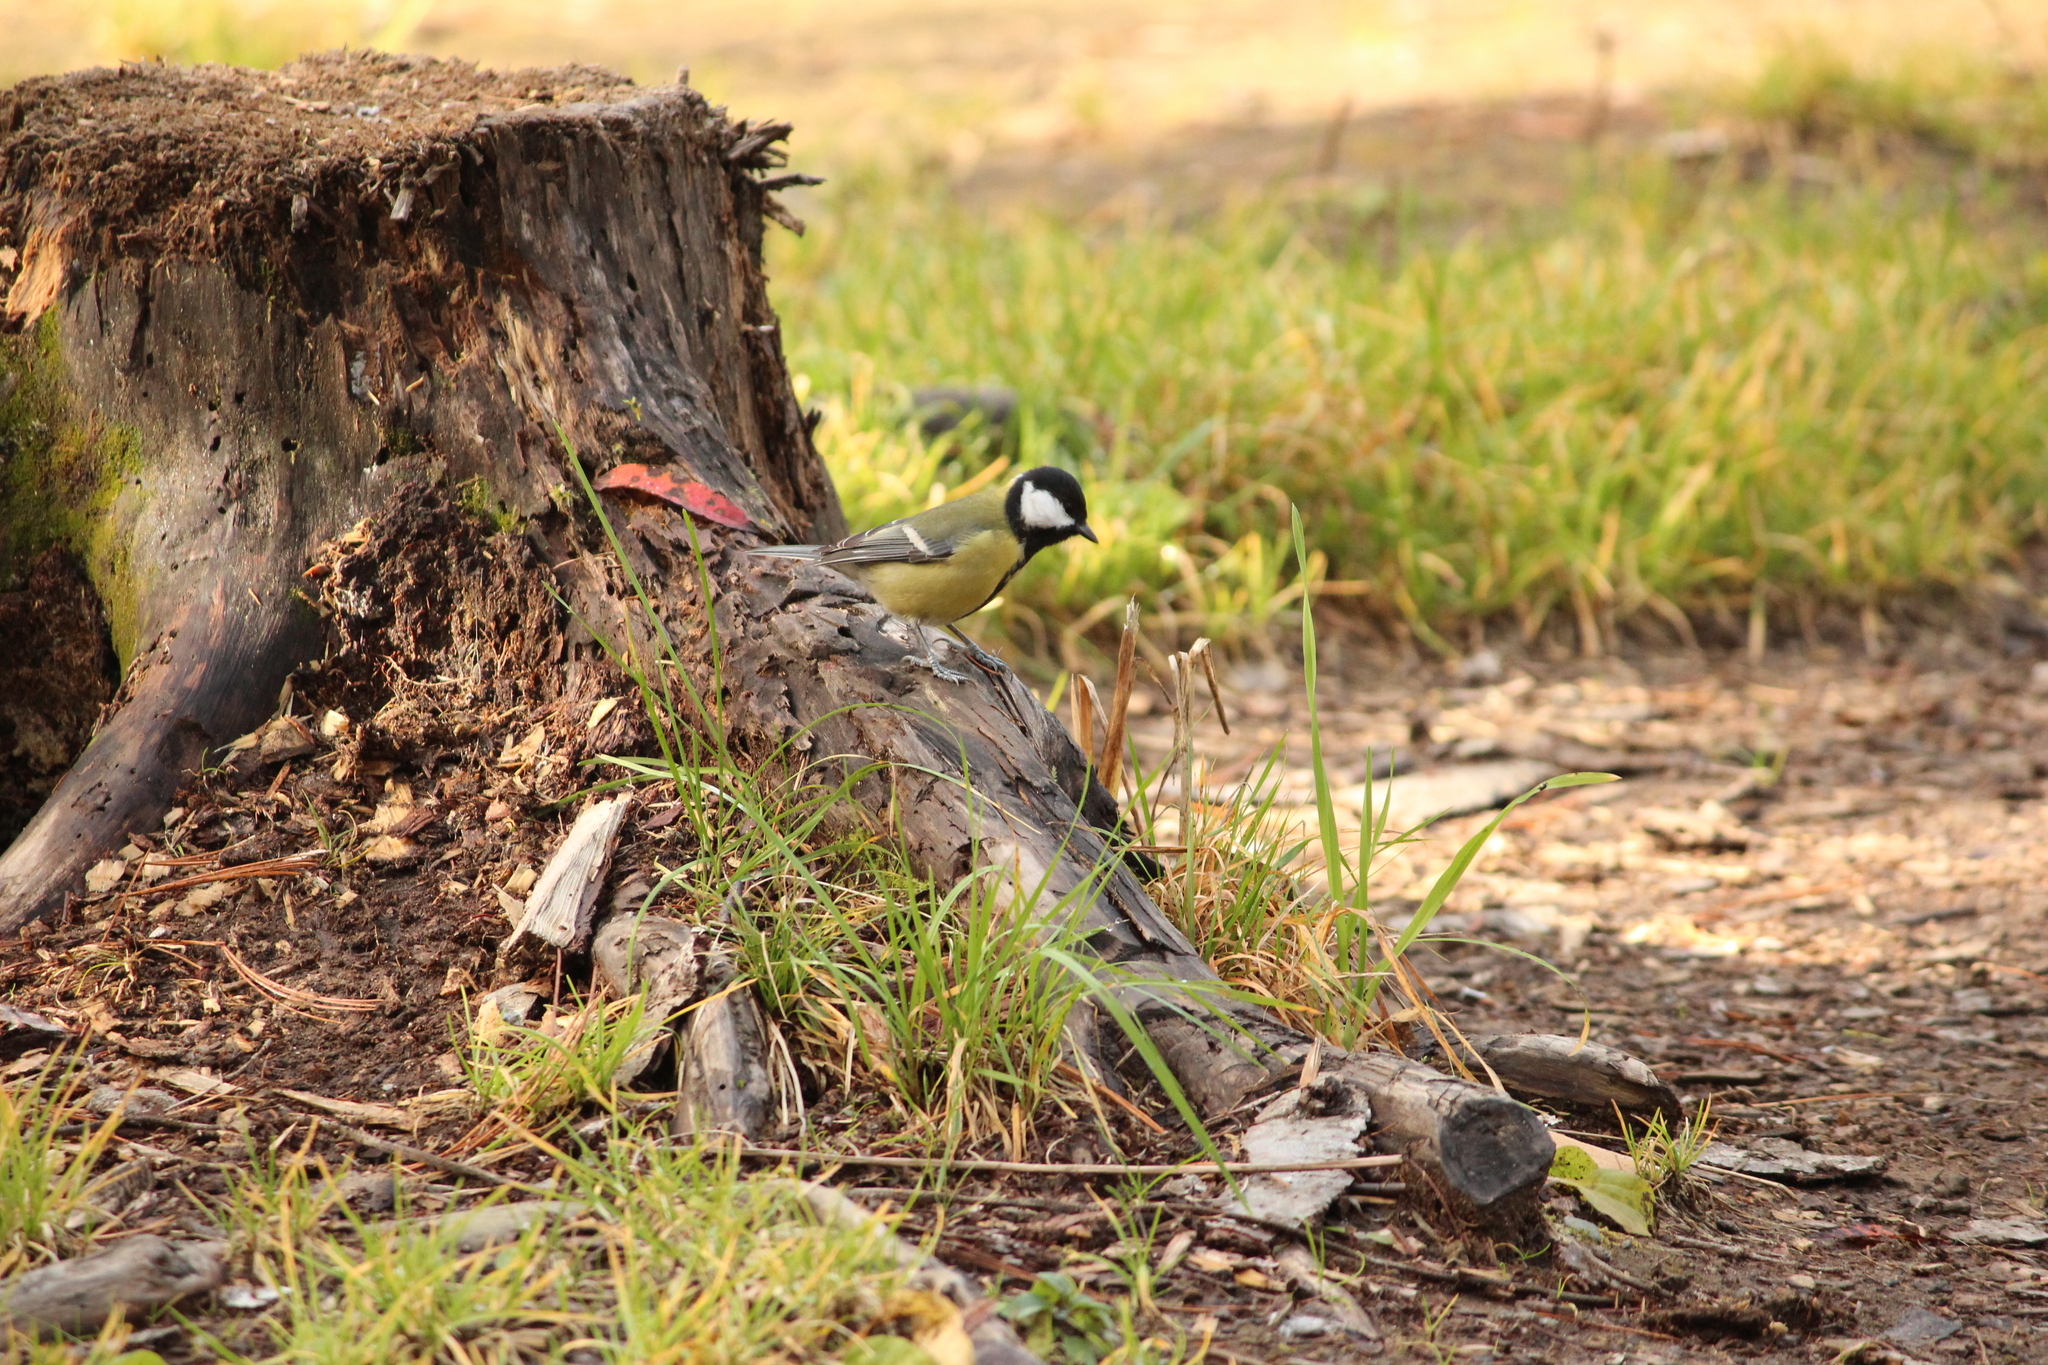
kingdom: Animalia
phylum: Chordata
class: Aves
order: Passeriformes
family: Paridae
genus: Parus
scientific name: Parus major
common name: Great tit
